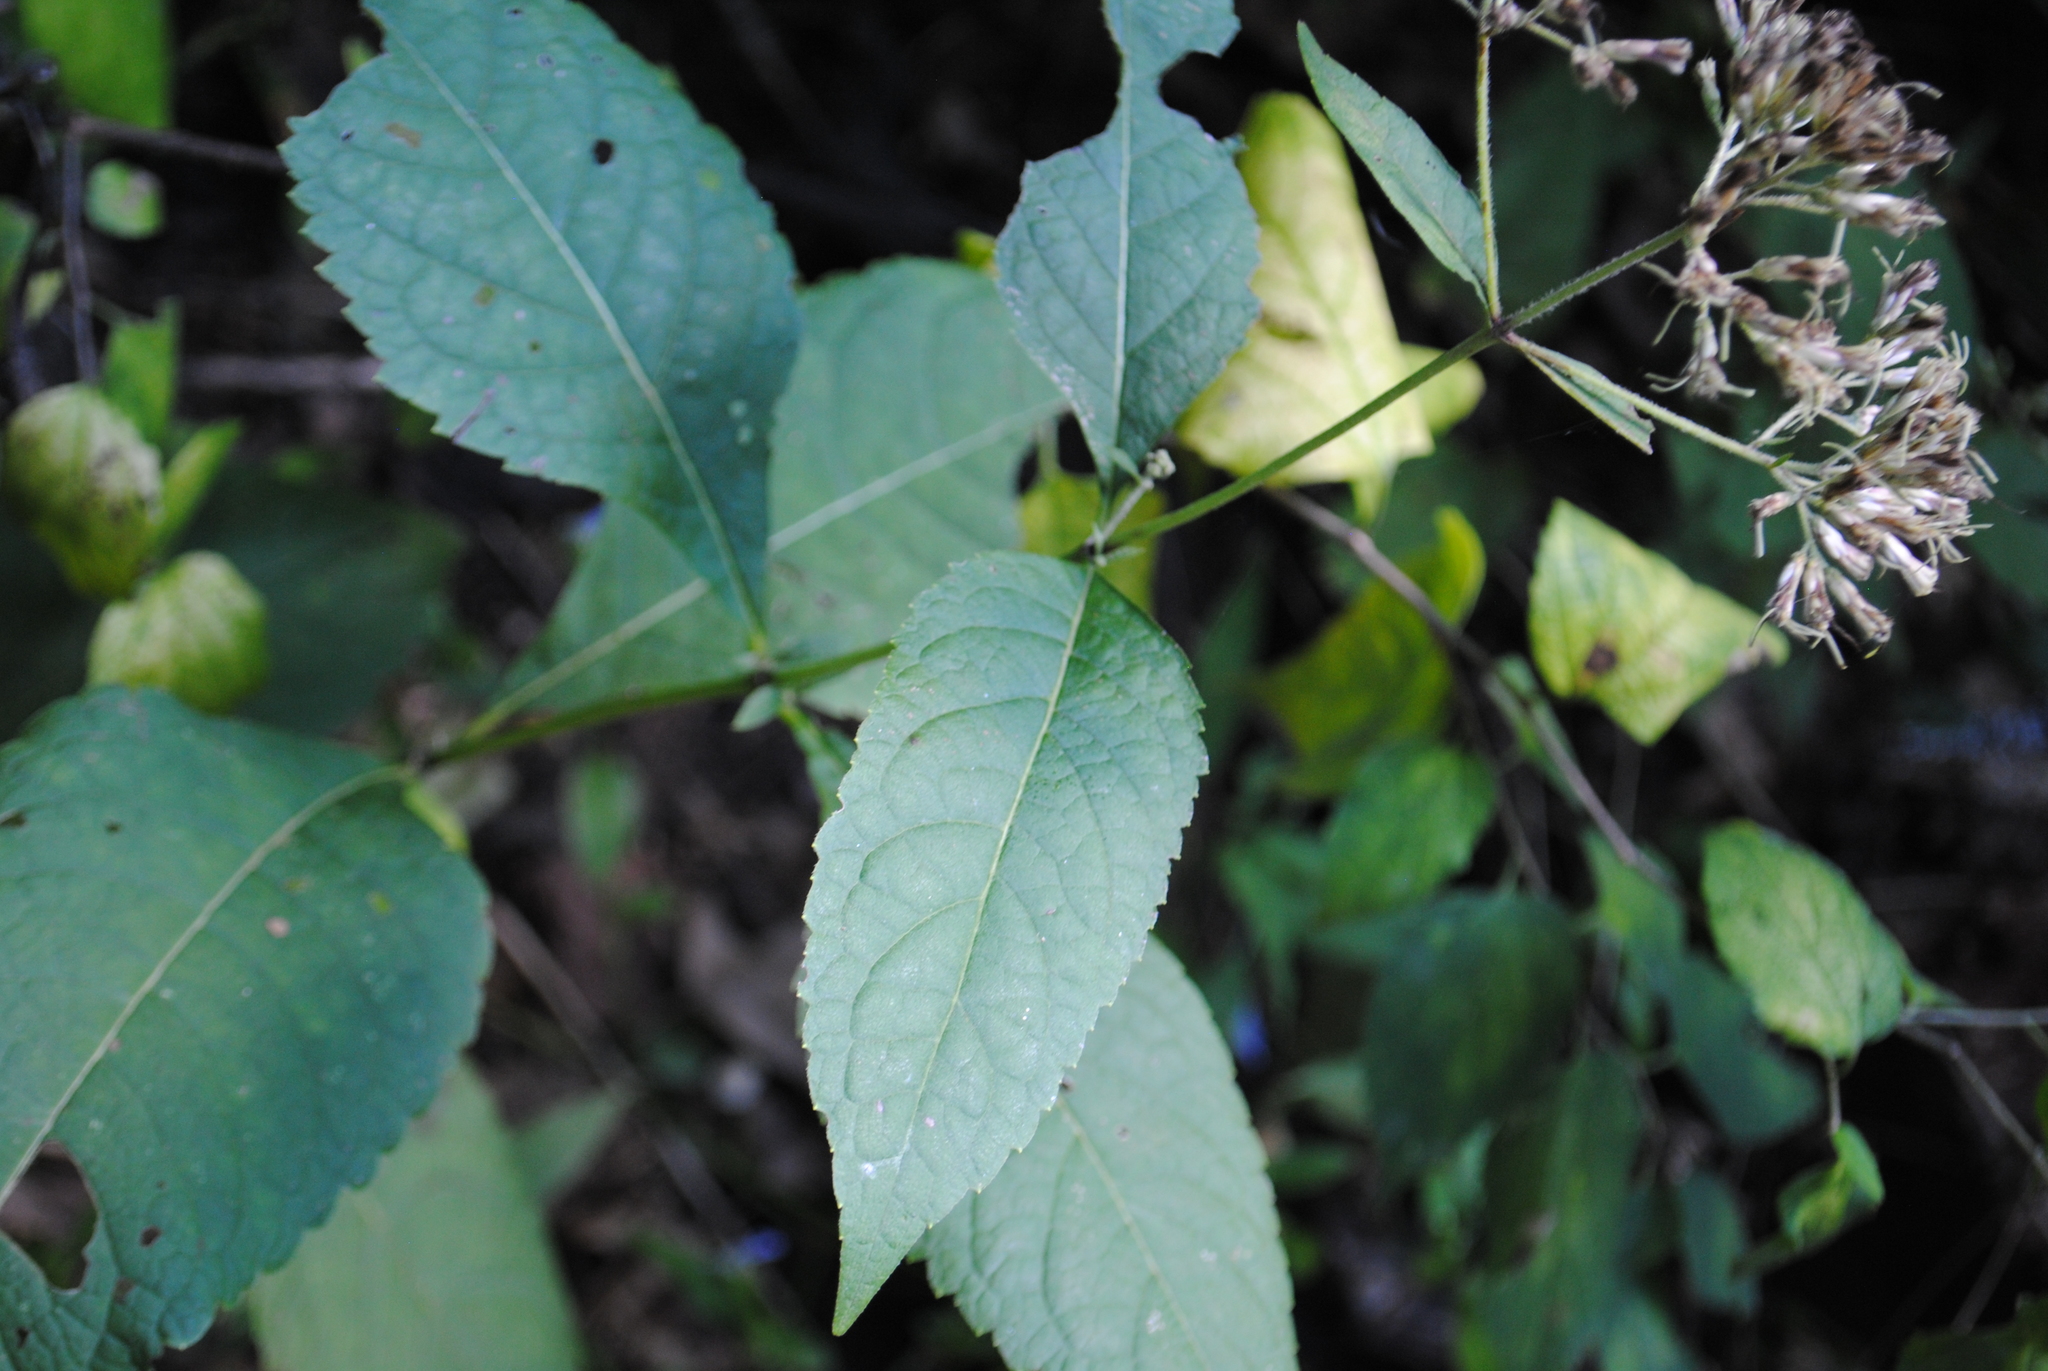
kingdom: Plantae
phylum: Tracheophyta
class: Magnoliopsida
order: Asterales
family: Asteraceae
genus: Eutrochium
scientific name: Eutrochium purpureum
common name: Gravelroot
